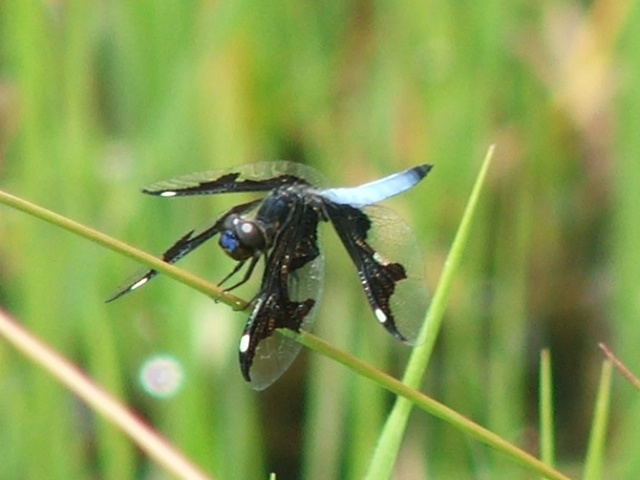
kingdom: Animalia
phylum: Arthropoda
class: Insecta
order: Odonata
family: Libellulidae
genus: Palpopleura
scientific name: Palpopleura portia
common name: Portia widow
